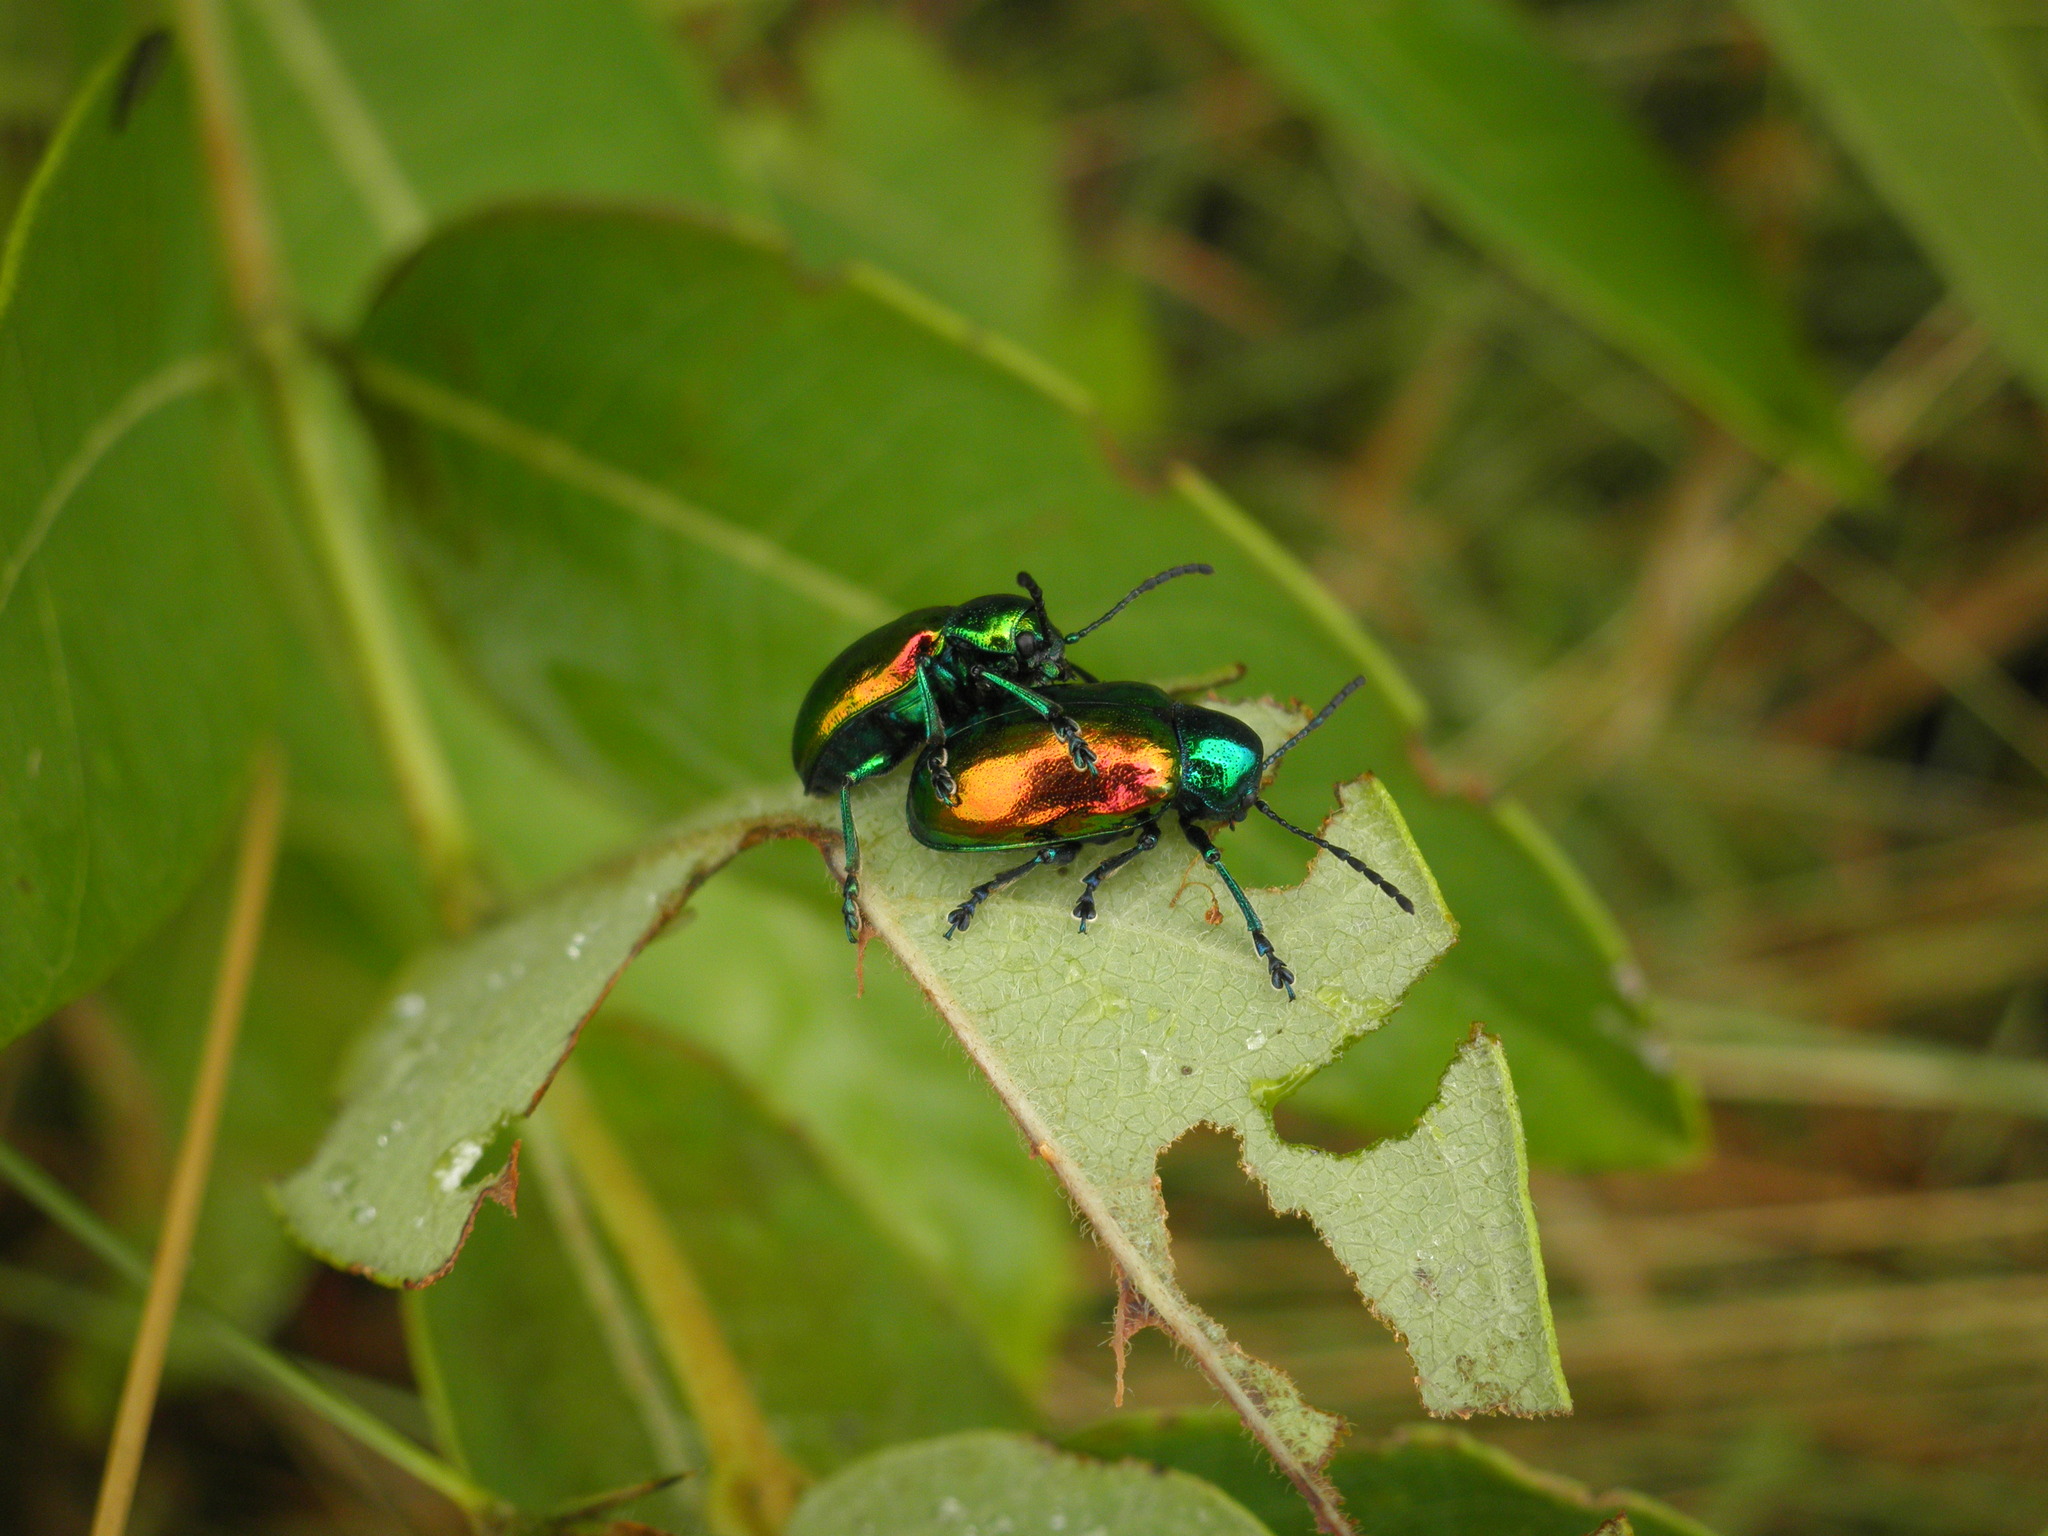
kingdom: Animalia
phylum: Arthropoda
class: Insecta
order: Coleoptera
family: Chrysomelidae
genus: Chrysochus
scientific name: Chrysochus auratus
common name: Dogbane leaf beetle
